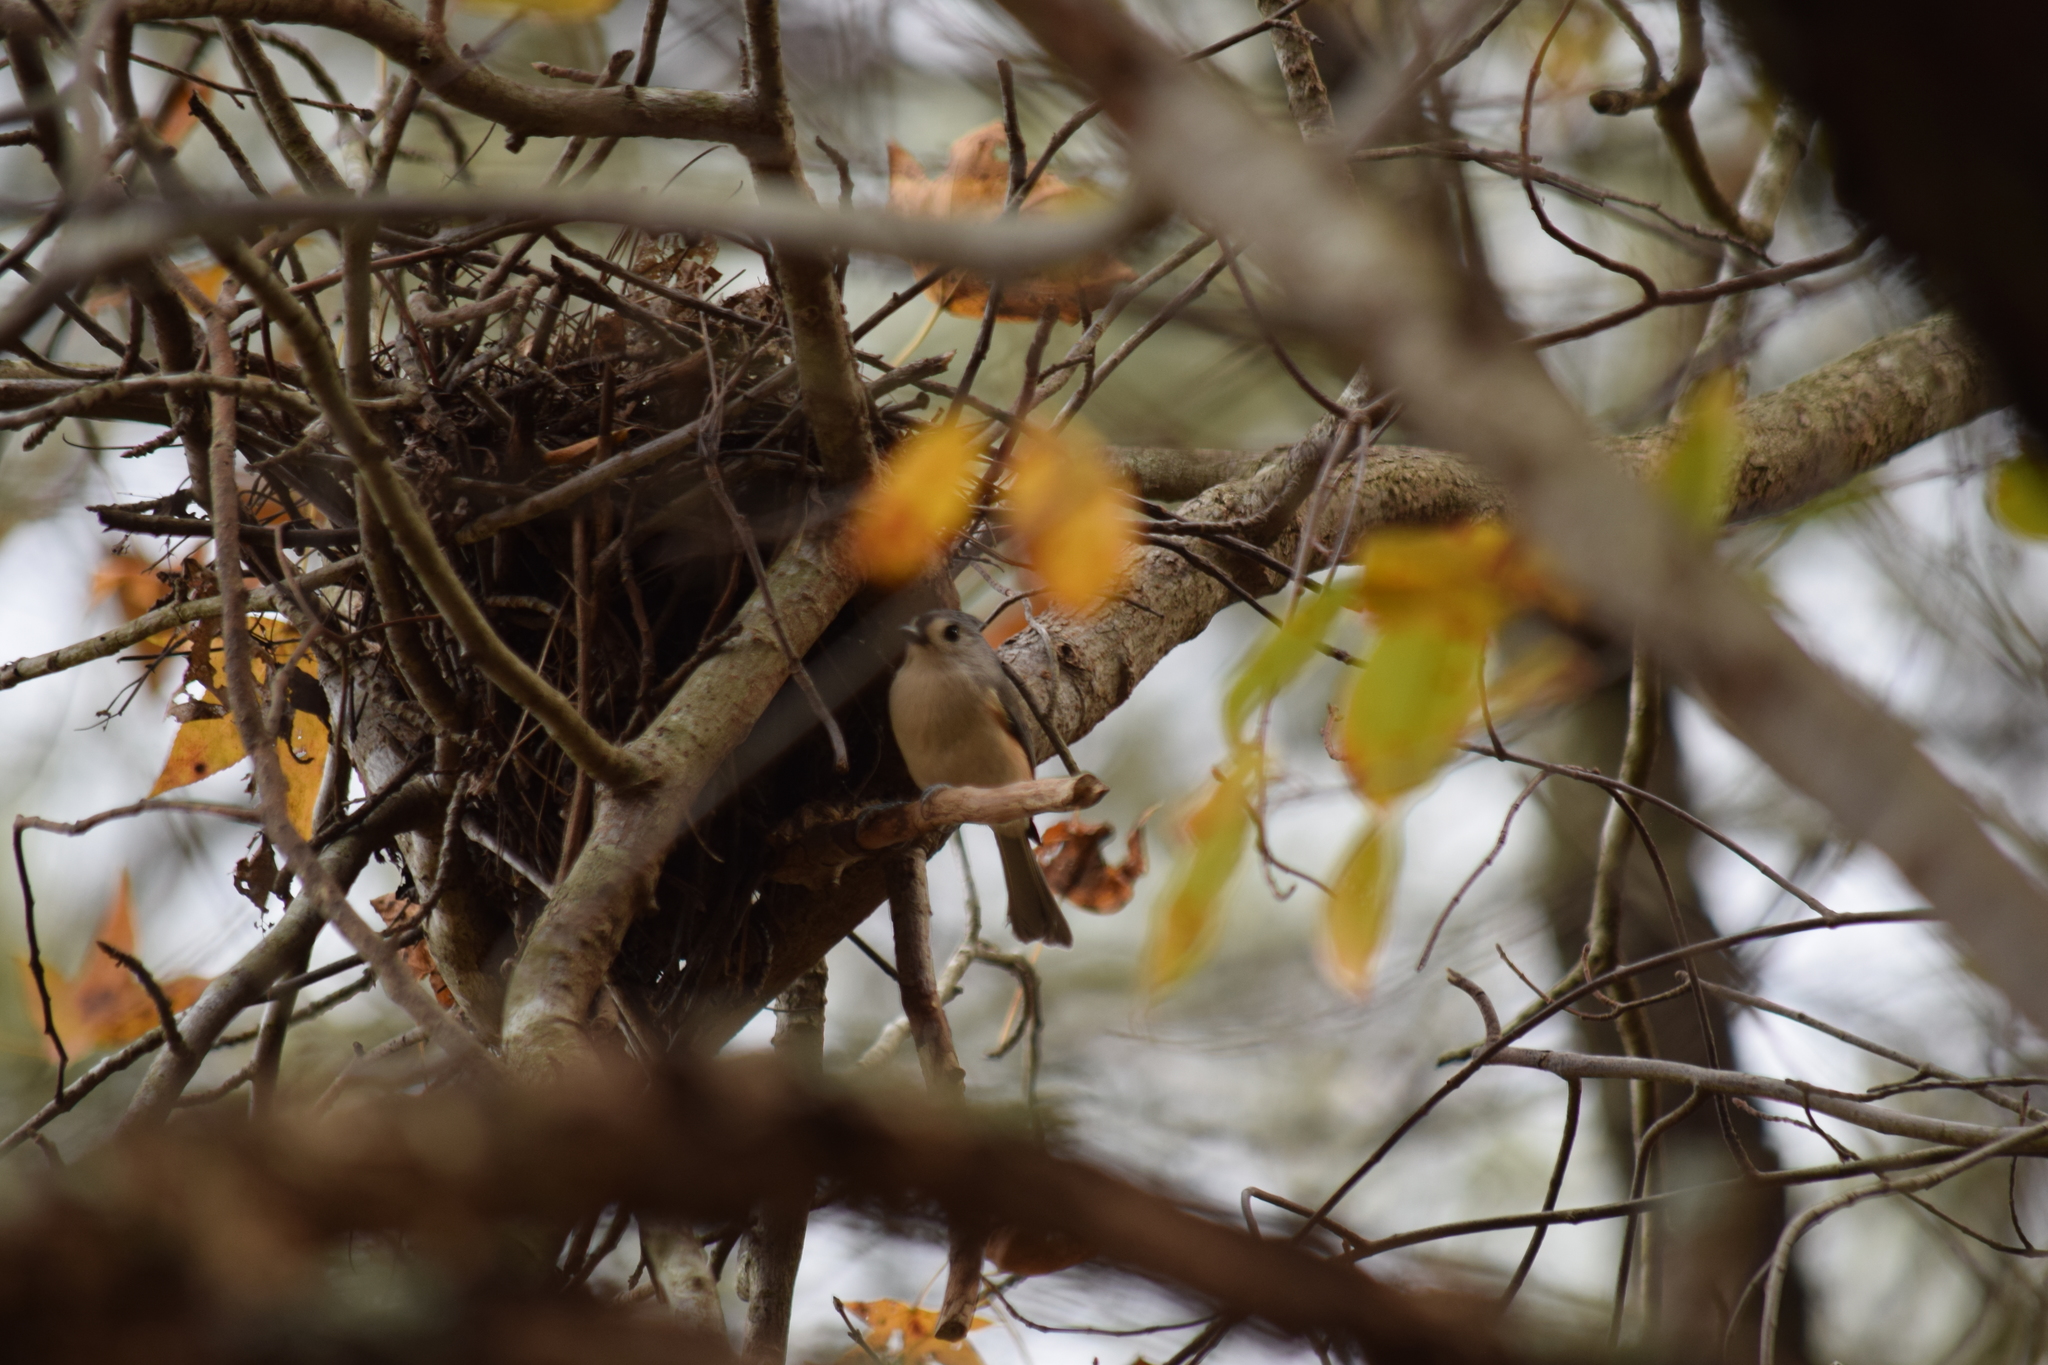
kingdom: Animalia
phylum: Chordata
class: Aves
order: Passeriformes
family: Paridae
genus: Baeolophus
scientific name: Baeolophus bicolor
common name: Tufted titmouse
